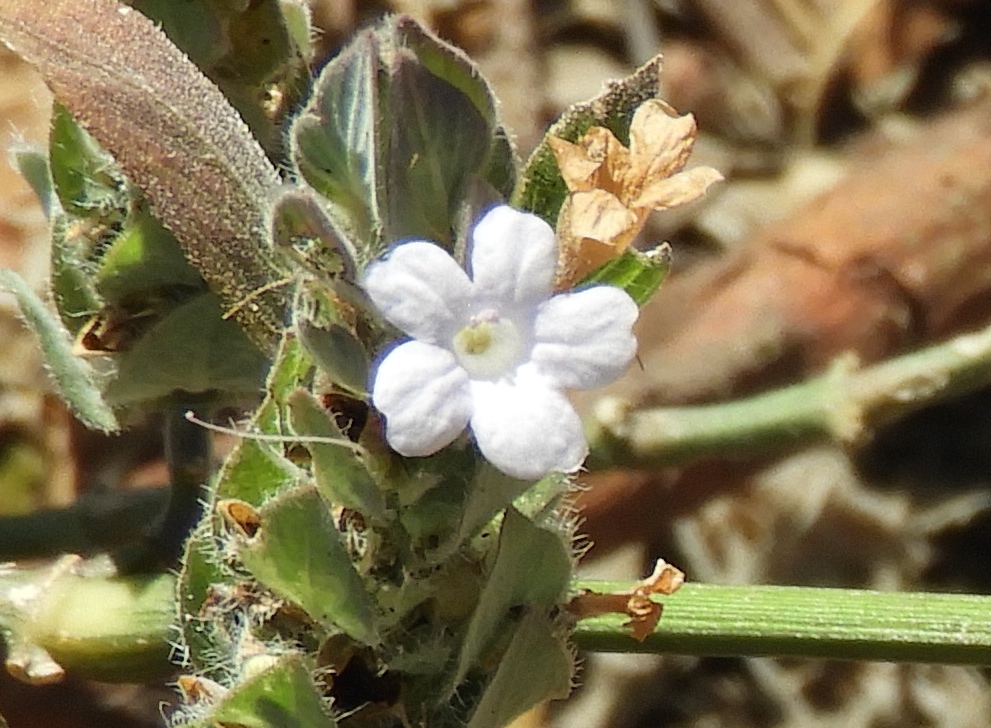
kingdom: Plantae
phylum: Tracheophyta
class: Magnoliopsida
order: Lamiales
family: Acanthaceae
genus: Ruellia
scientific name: Ruellia blechum
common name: Browne's blechum
